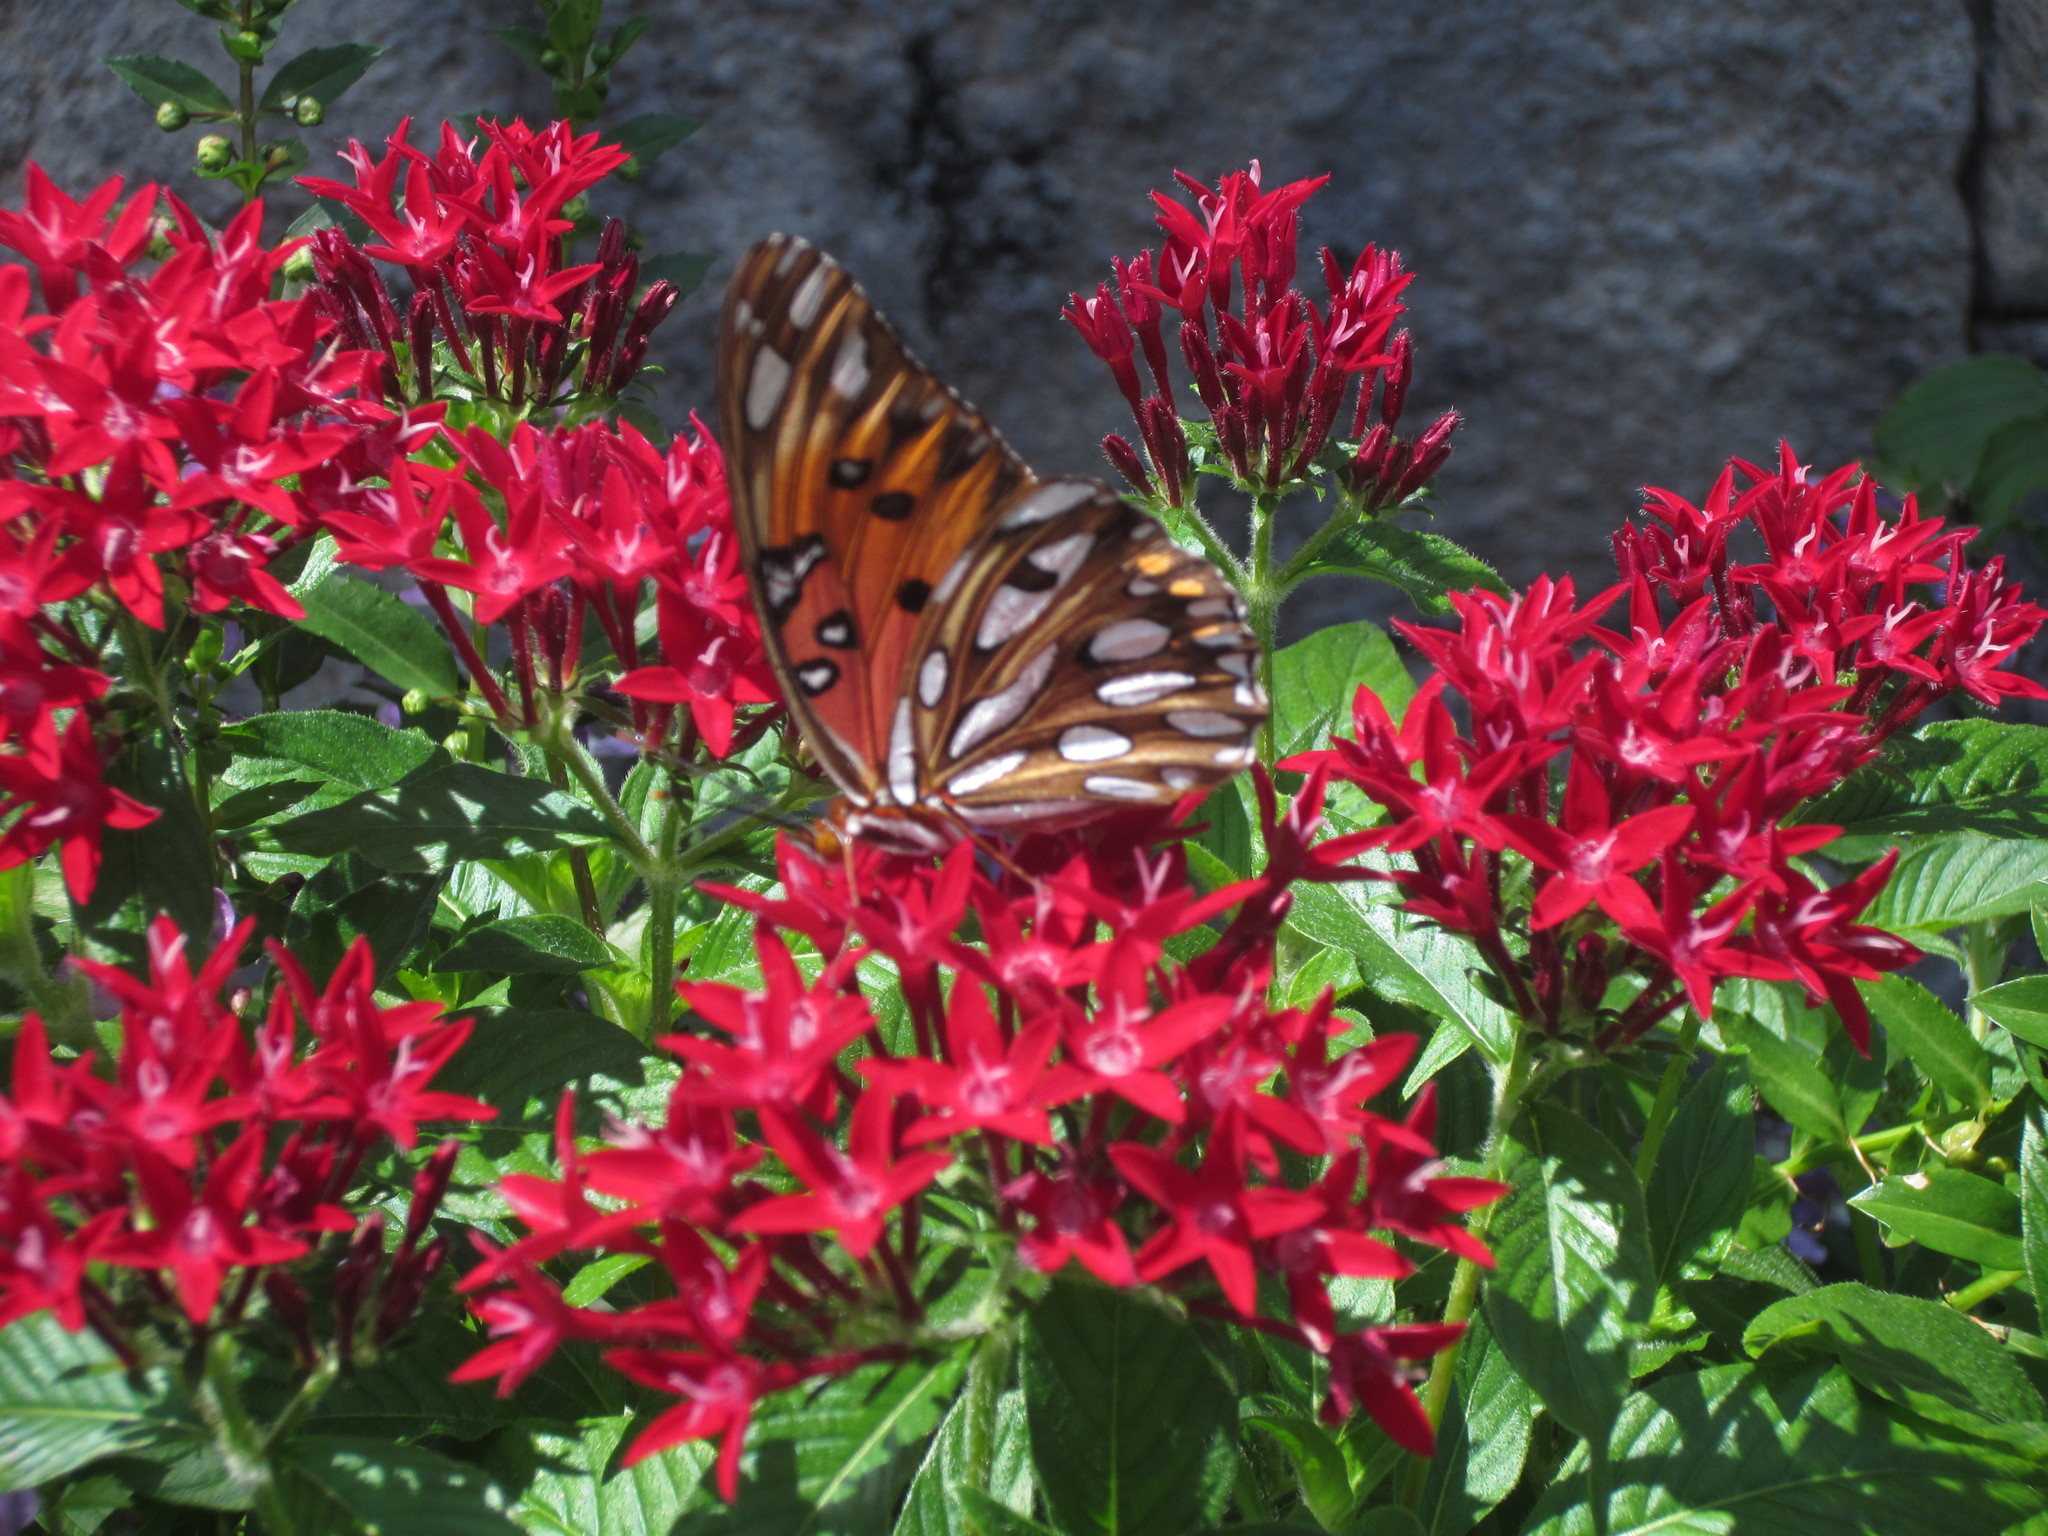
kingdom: Animalia
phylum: Arthropoda
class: Insecta
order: Lepidoptera
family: Nymphalidae
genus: Dione
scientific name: Dione vanillae
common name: Gulf fritillary
